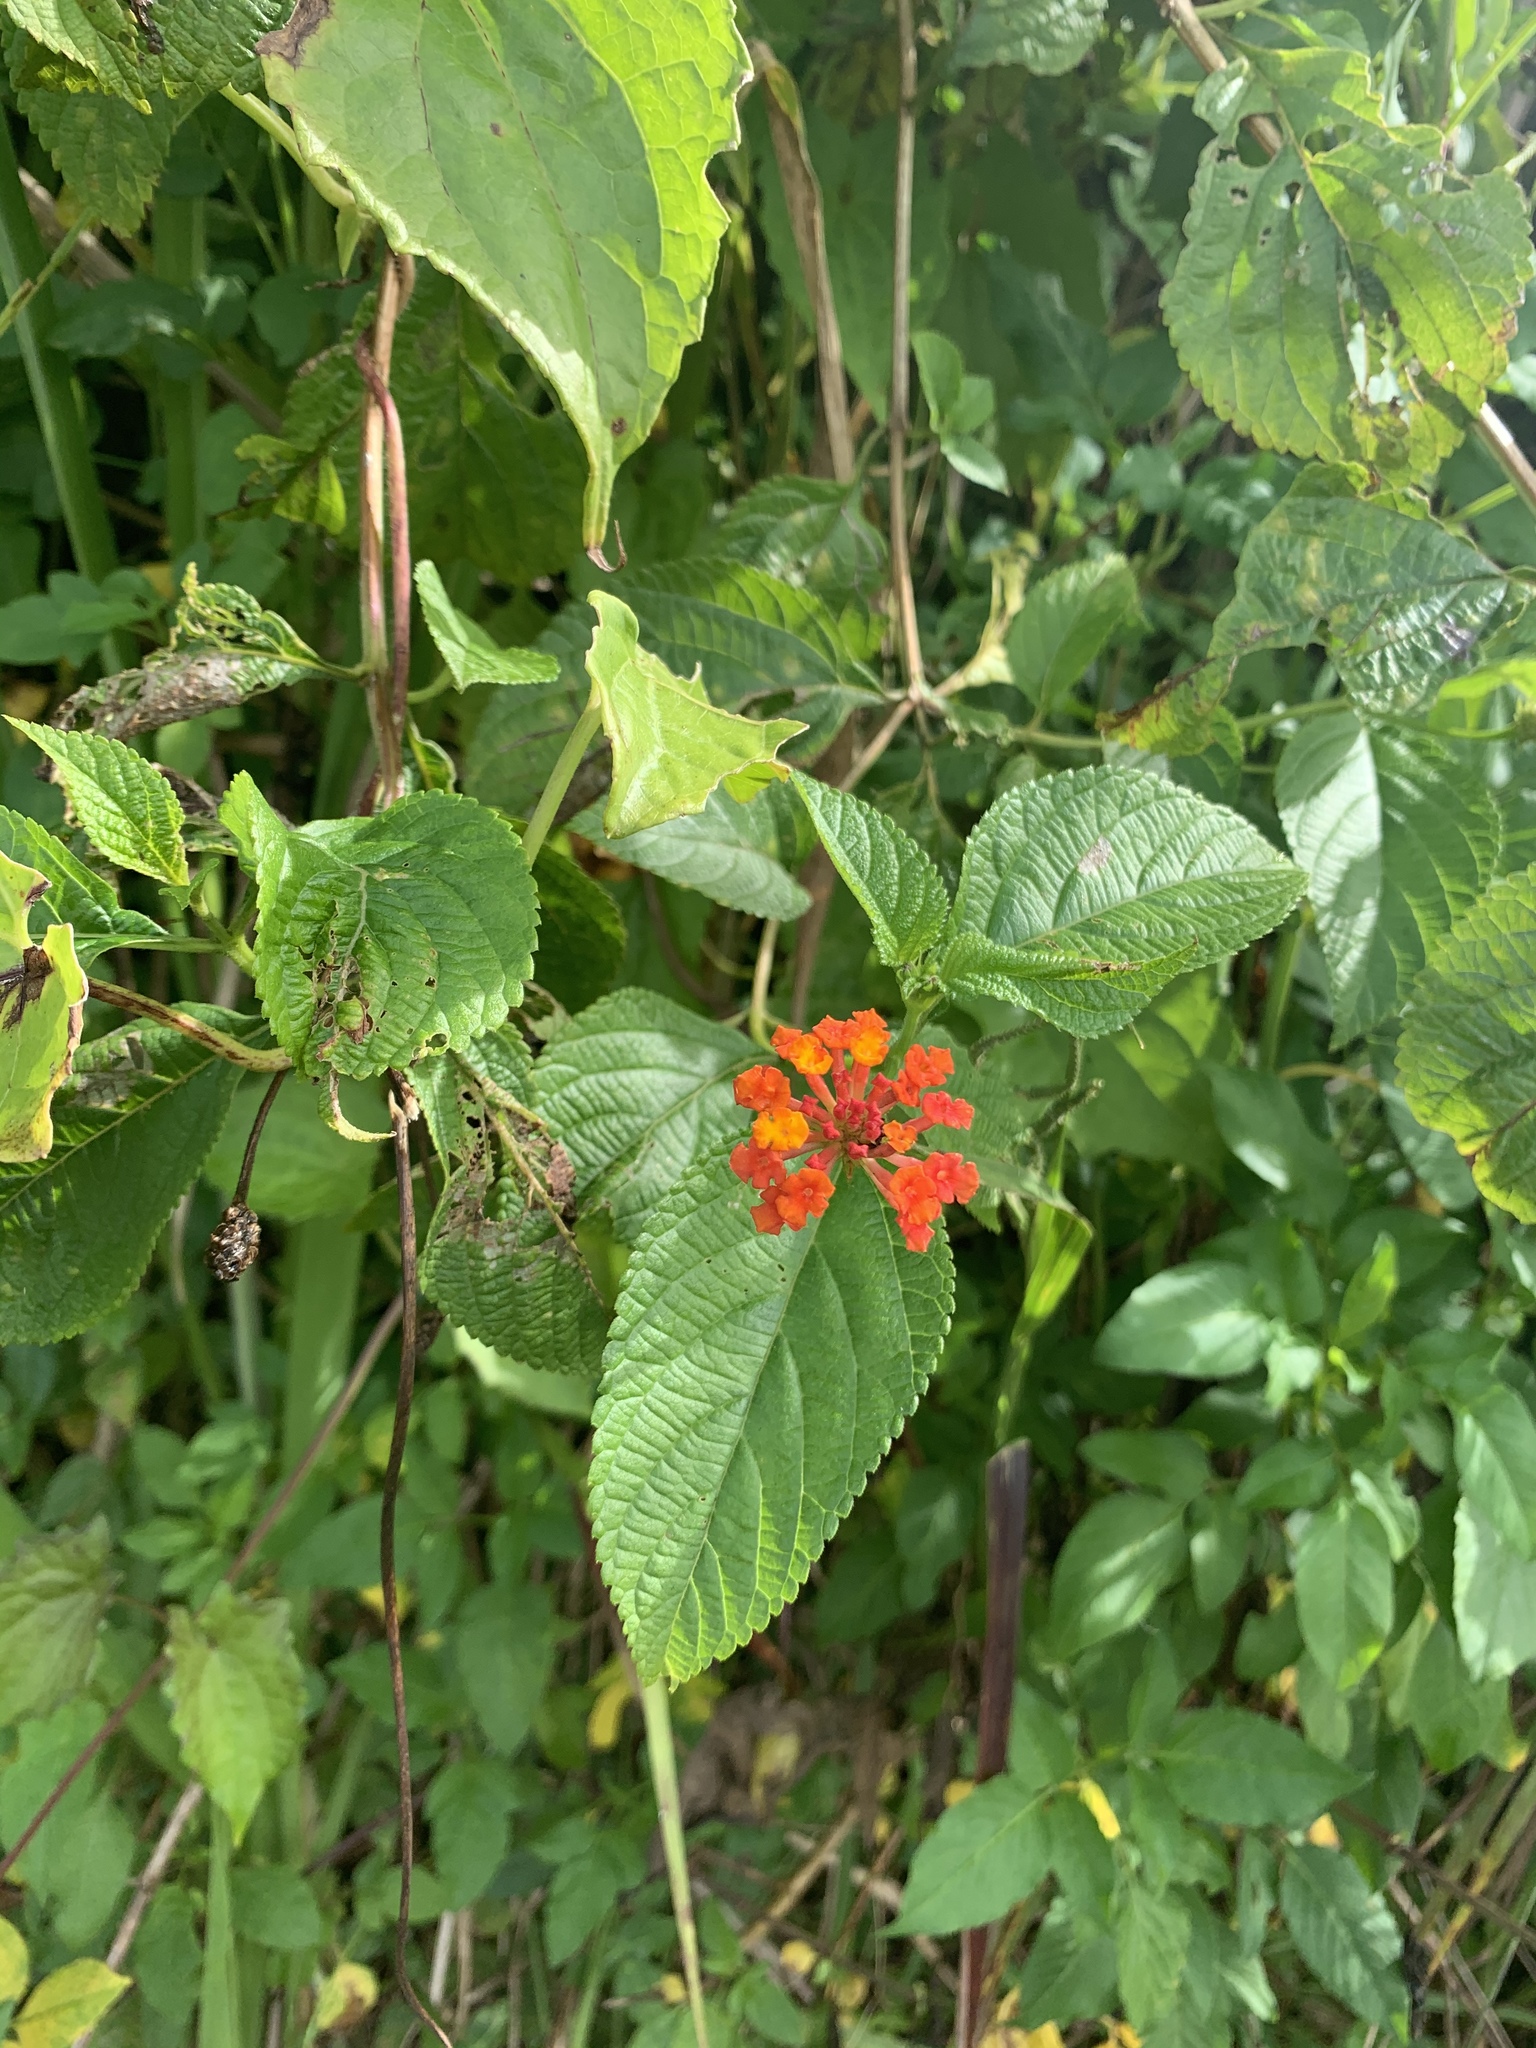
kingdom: Plantae
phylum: Tracheophyta
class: Magnoliopsida
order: Lamiales
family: Verbenaceae
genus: Lantana
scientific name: Lantana camara
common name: Lantana
